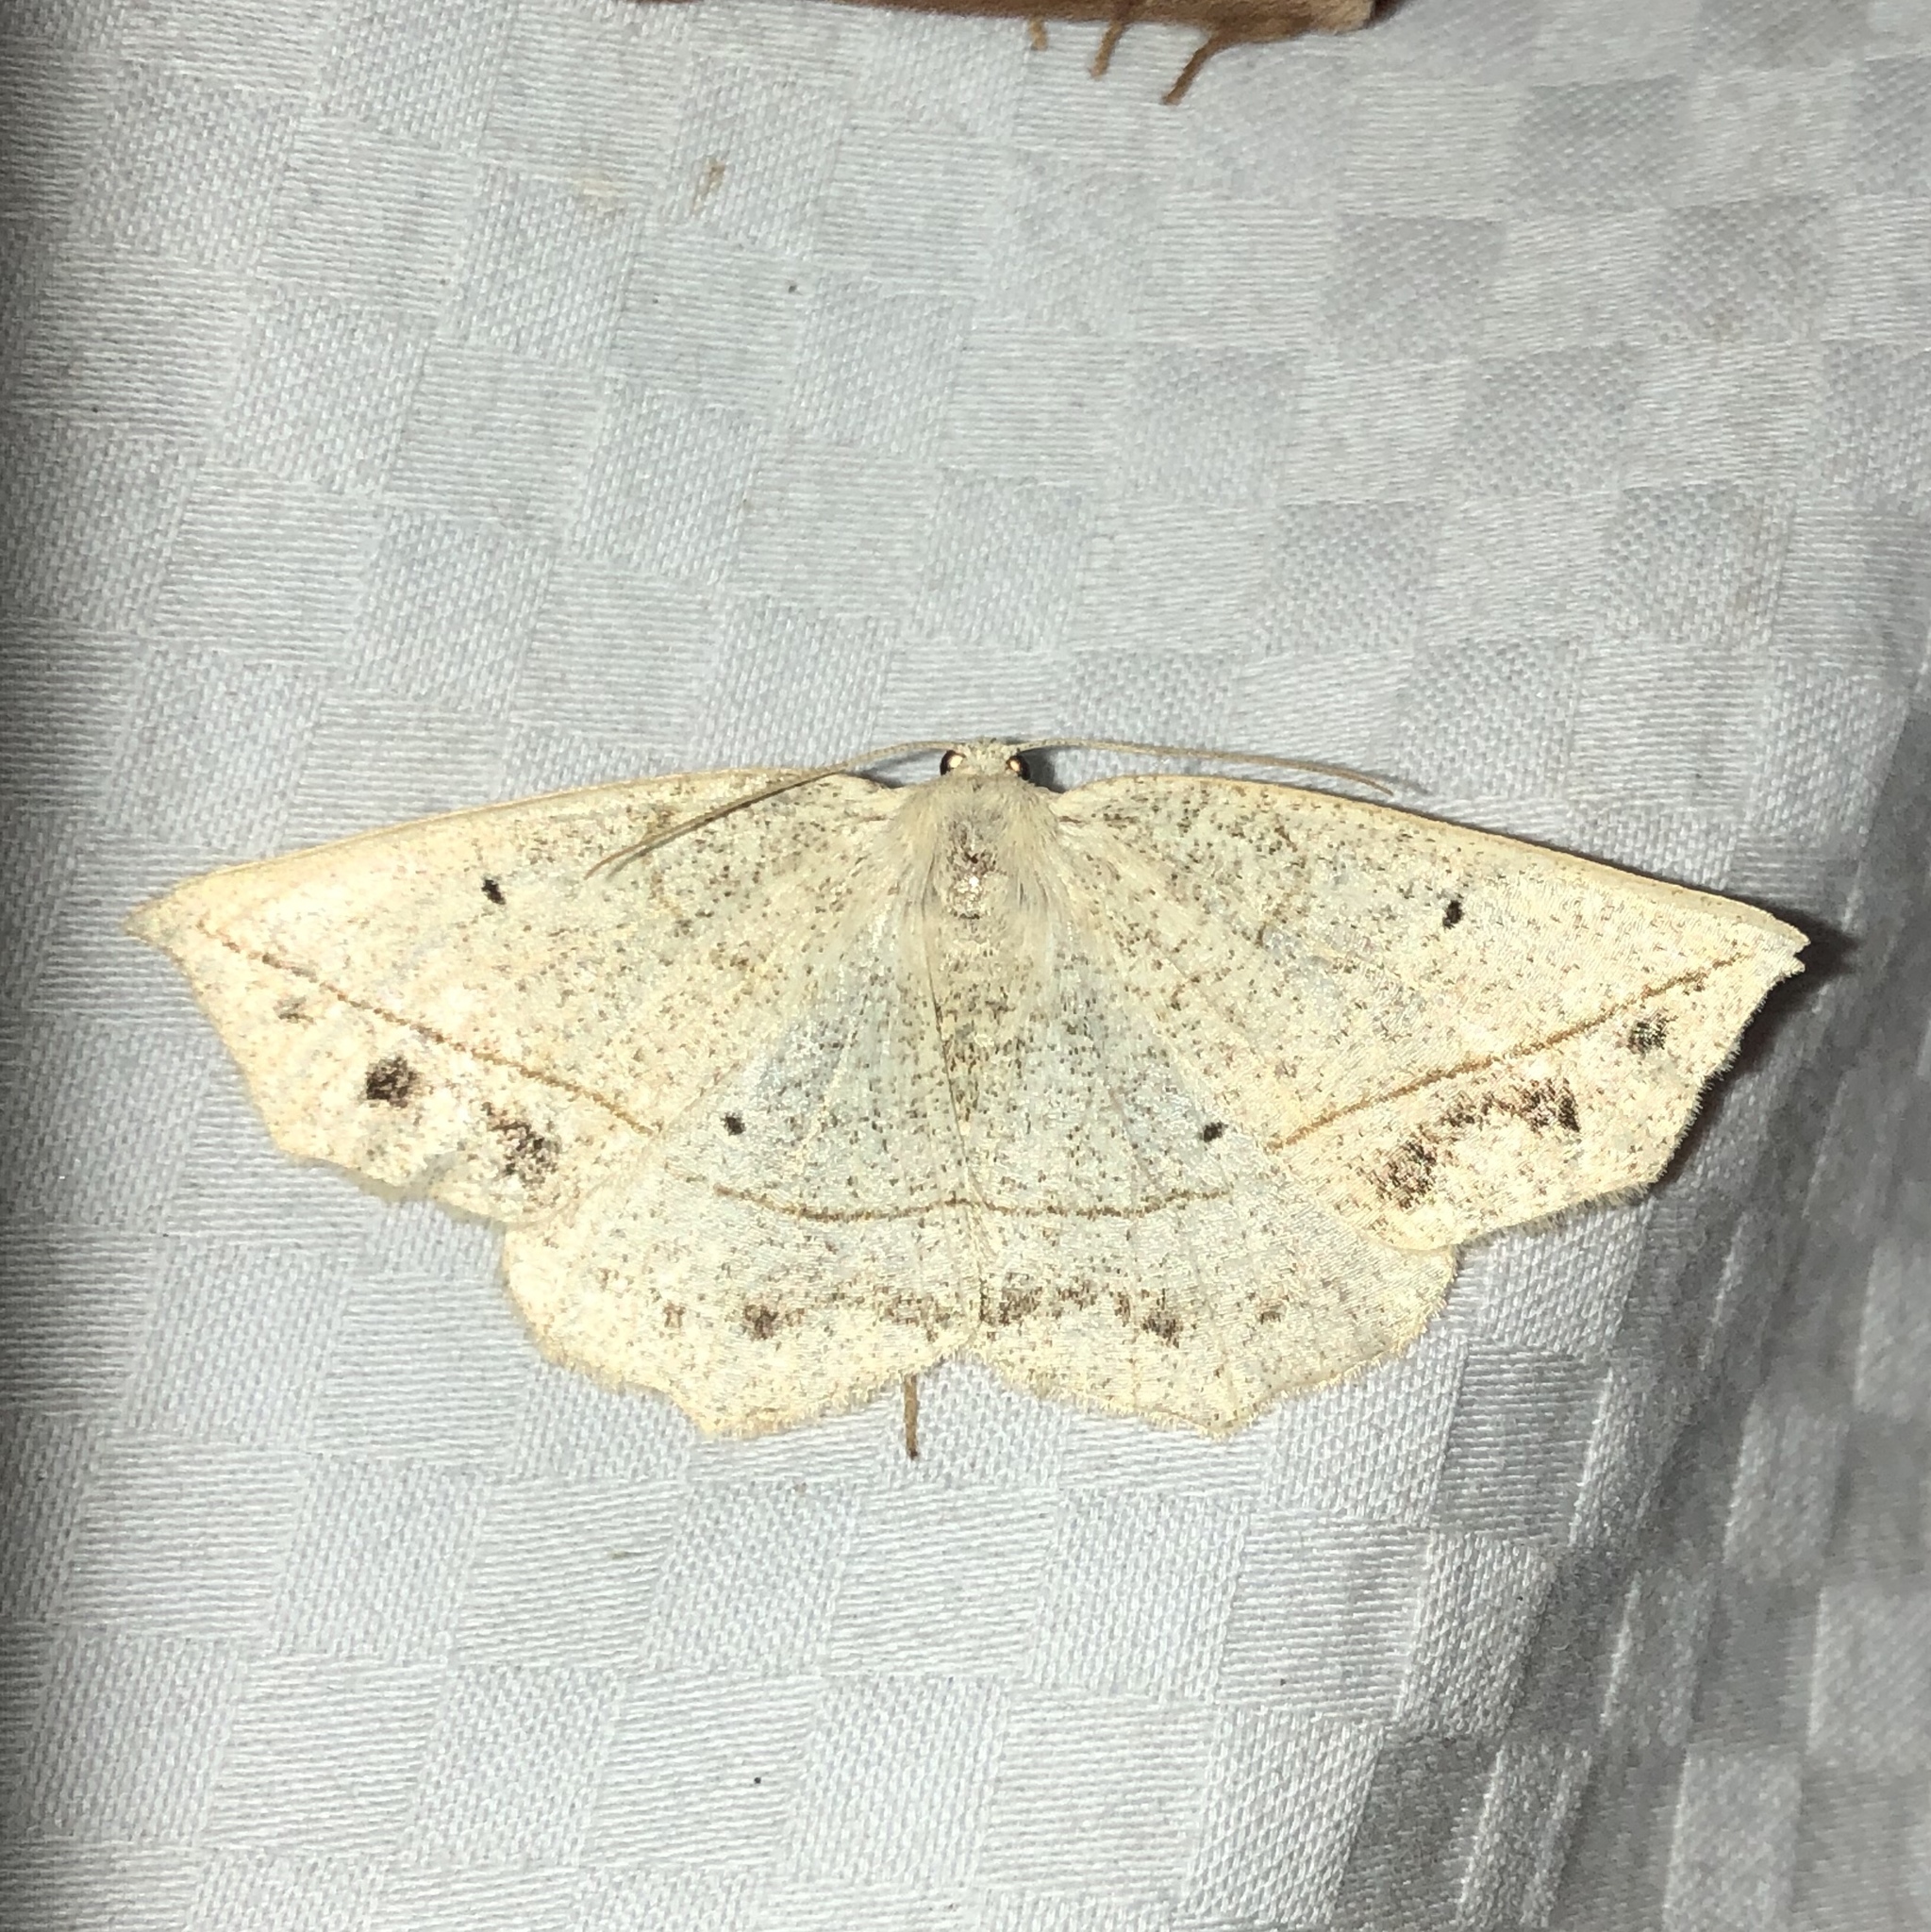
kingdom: Animalia
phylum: Arthropoda
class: Insecta
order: Lepidoptera
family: Geometridae
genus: Eusarca
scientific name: Eusarca confusaria
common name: Confused eusarca
